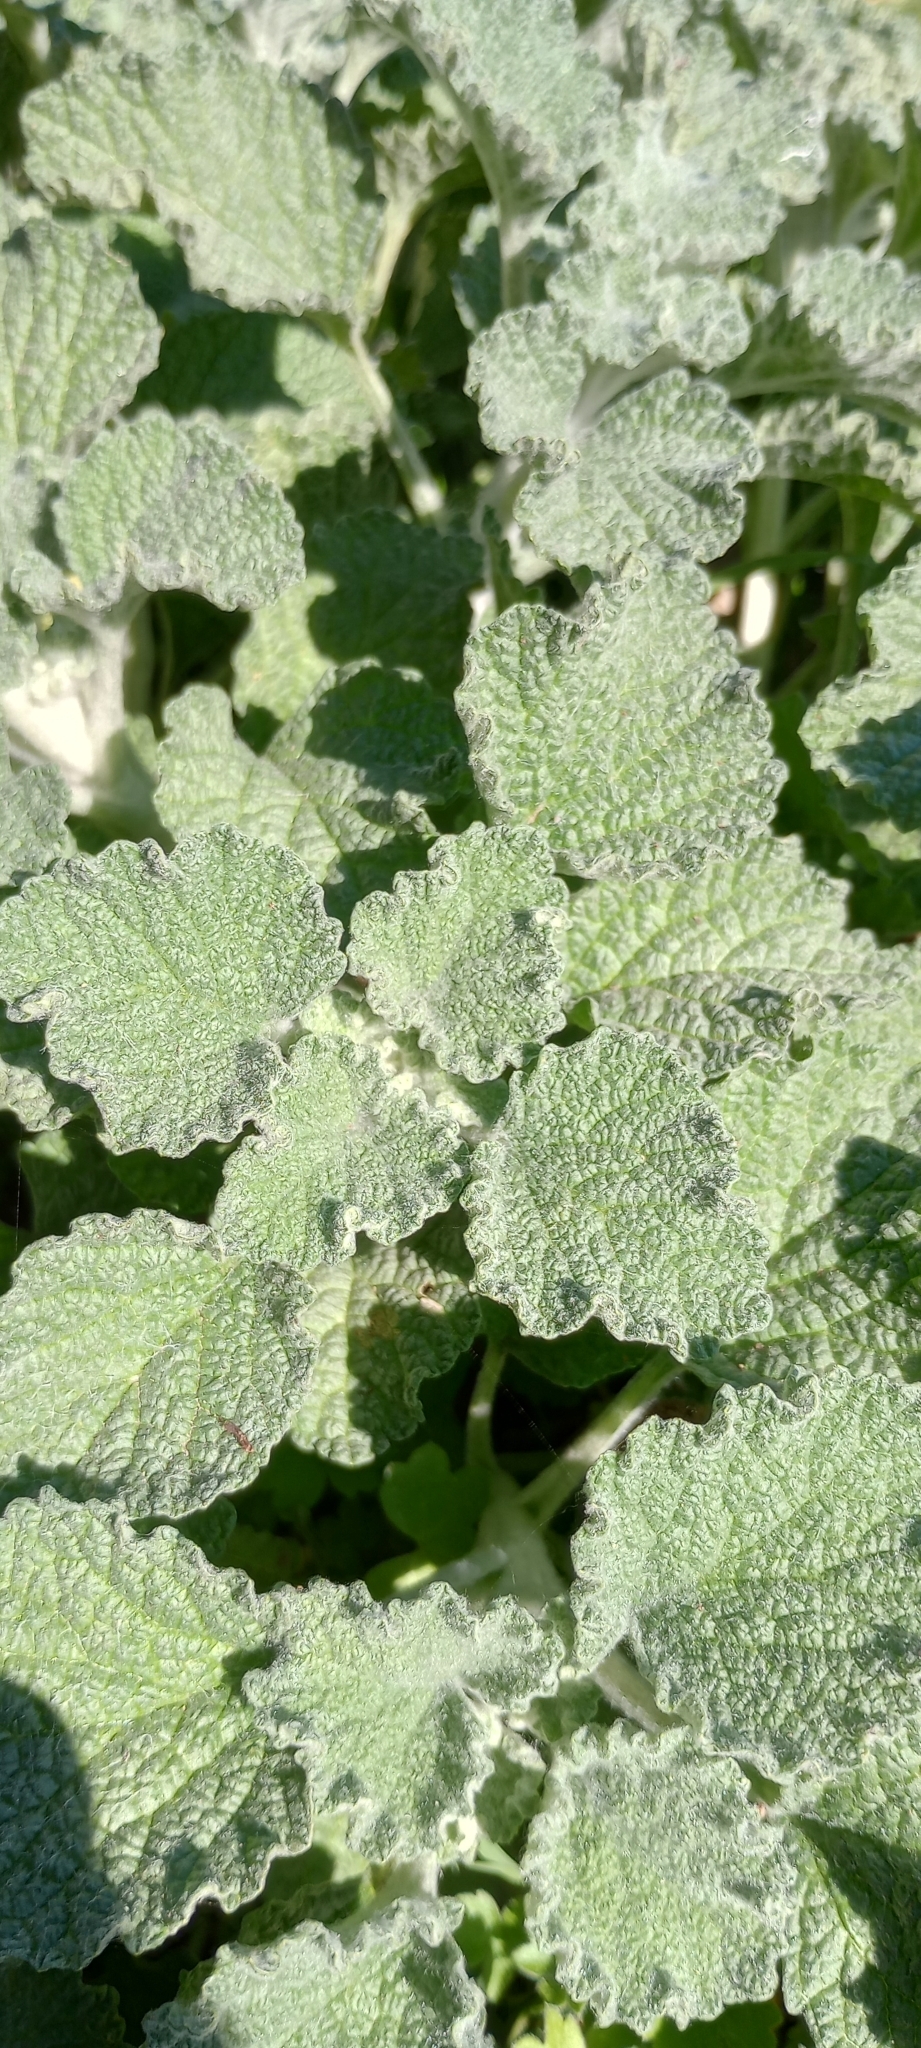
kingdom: Plantae
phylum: Tracheophyta
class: Magnoliopsida
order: Lamiales
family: Lamiaceae
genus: Marrubium
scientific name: Marrubium vulgare
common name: Horehound
